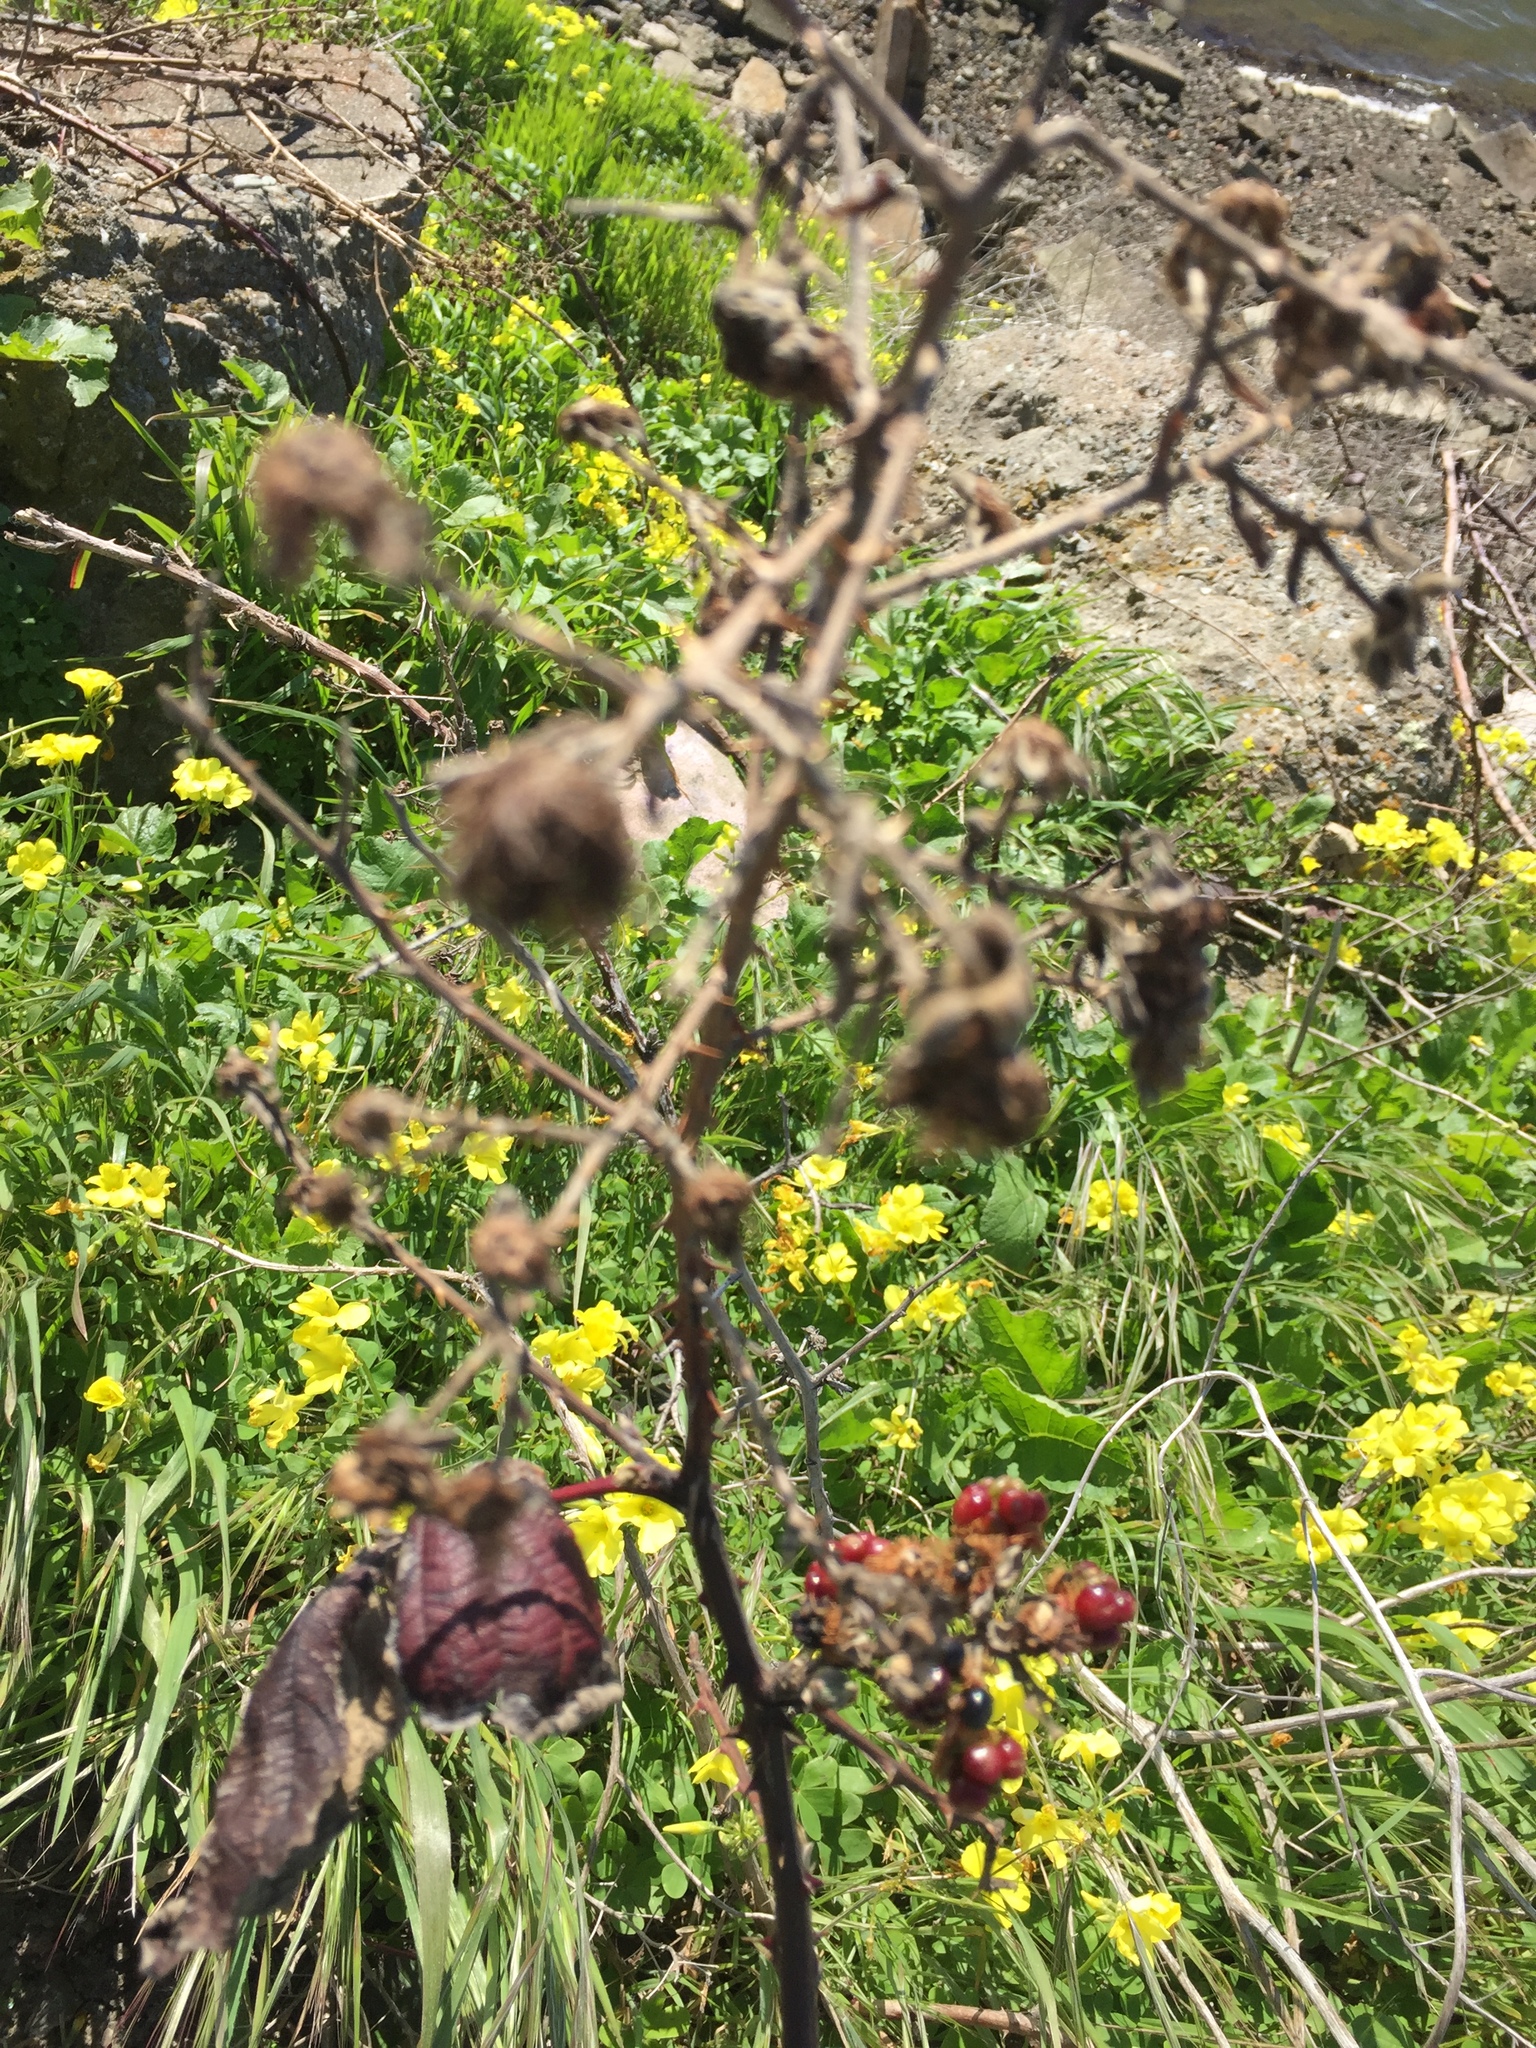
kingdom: Plantae
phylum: Tracheophyta
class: Magnoliopsida
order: Rosales
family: Rosaceae
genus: Rubus
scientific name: Rubus armeniacus
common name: Himalayan blackberry
